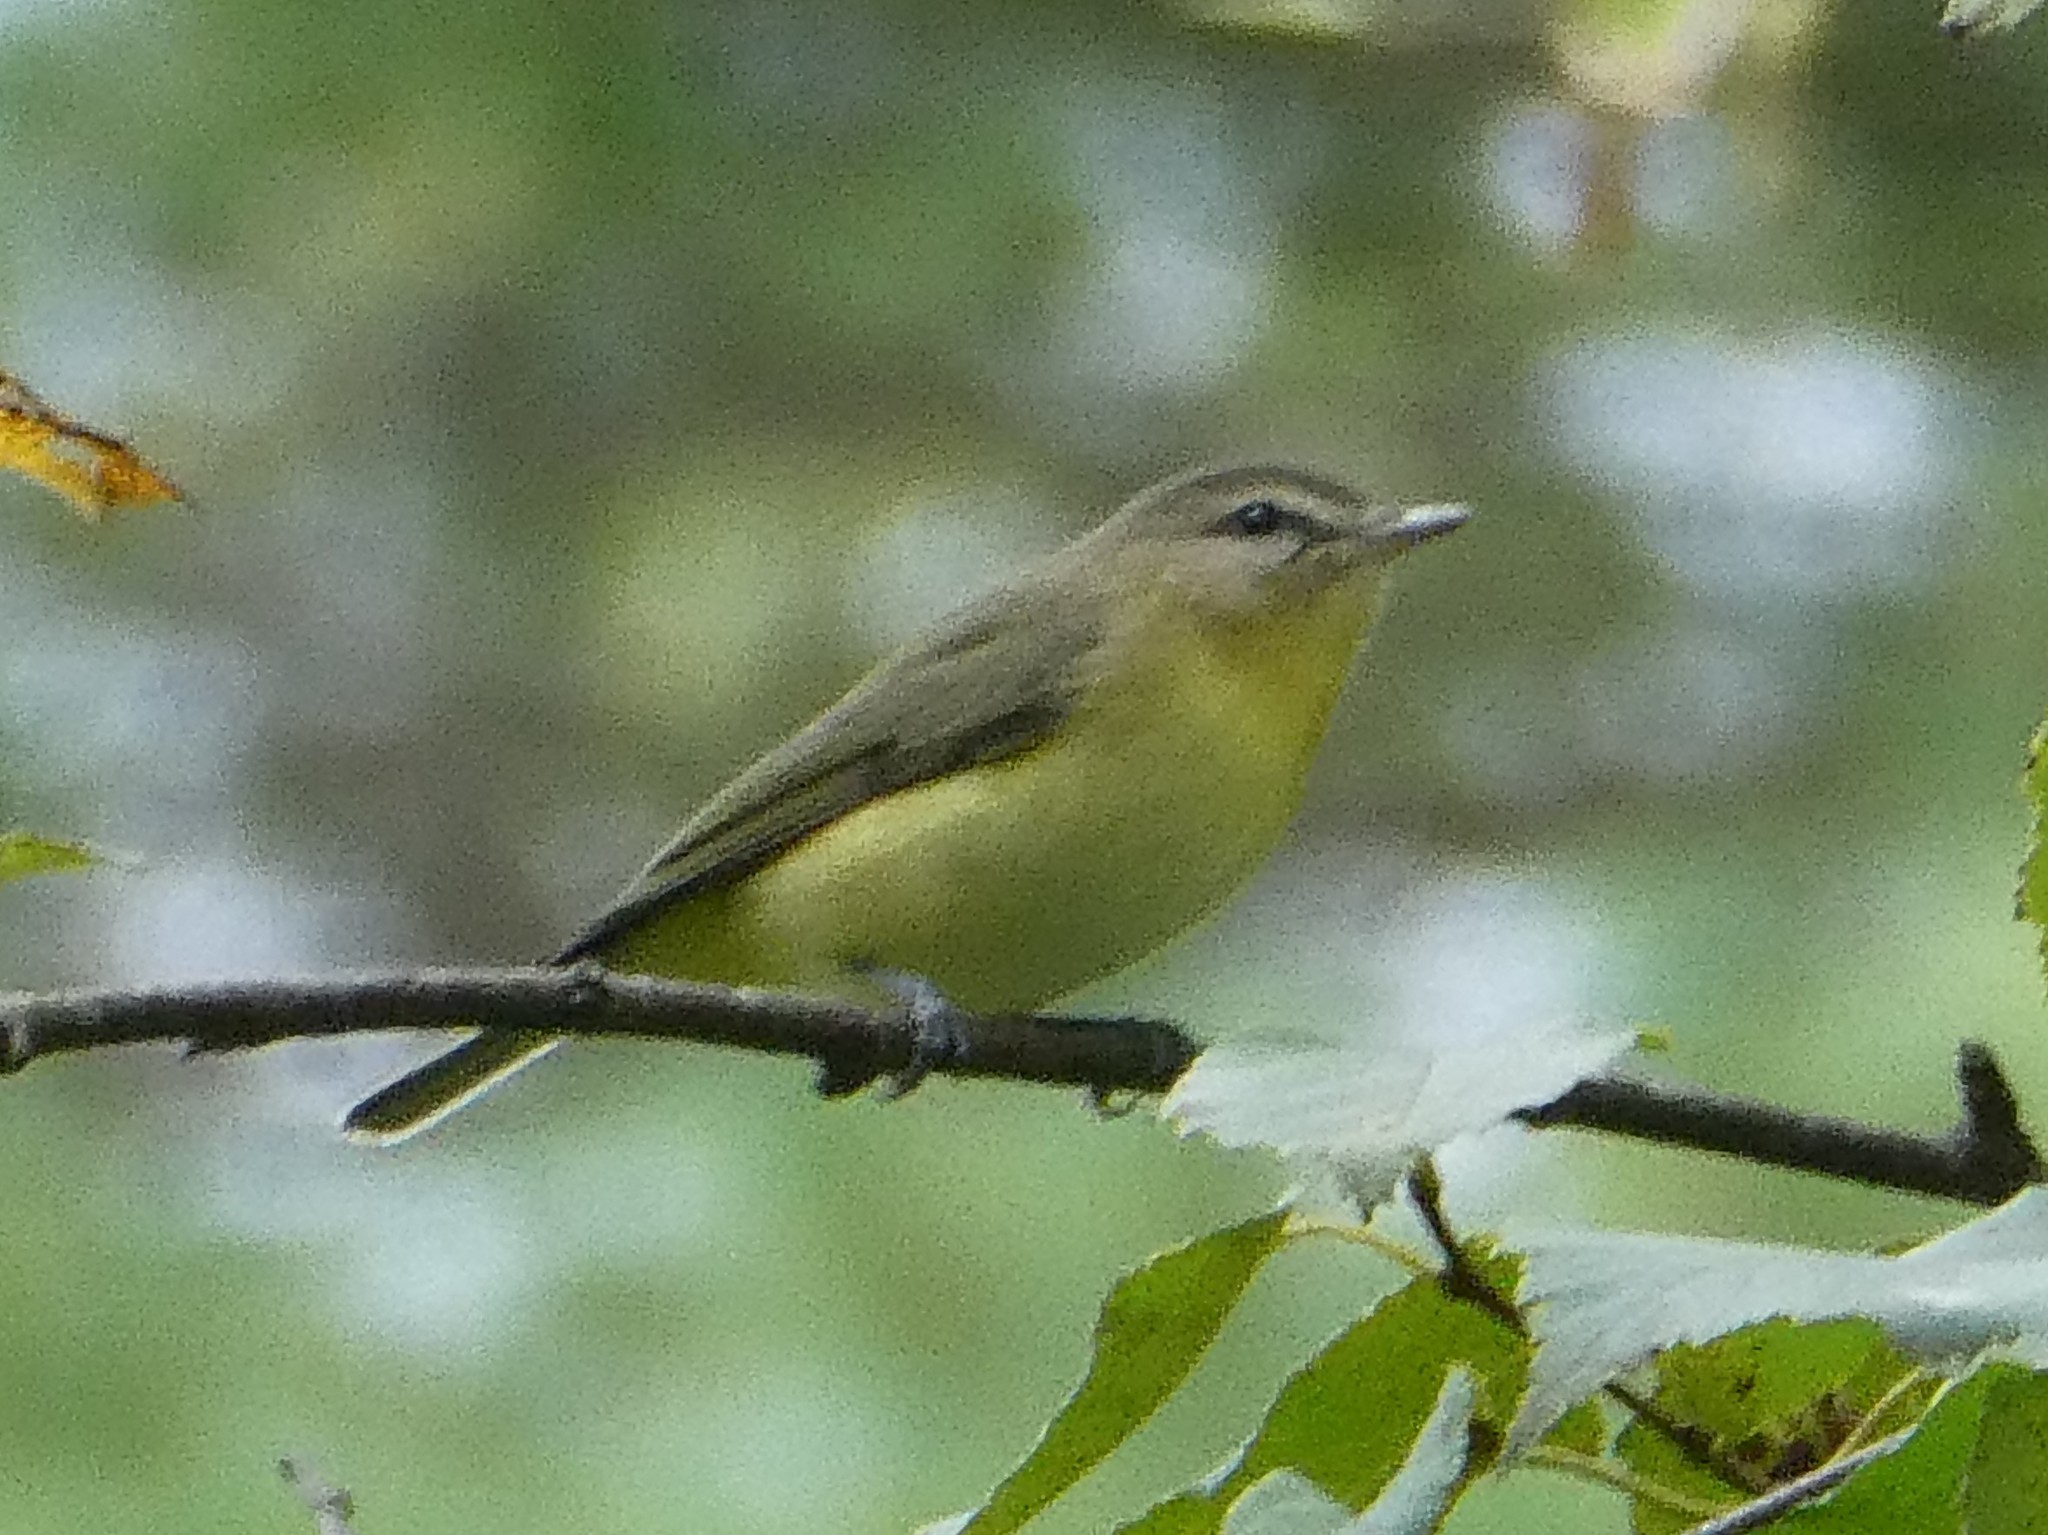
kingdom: Animalia
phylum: Chordata
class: Aves
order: Passeriformes
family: Vireonidae
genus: Vireo
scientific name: Vireo philadelphicus
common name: Philadelphia vireo
